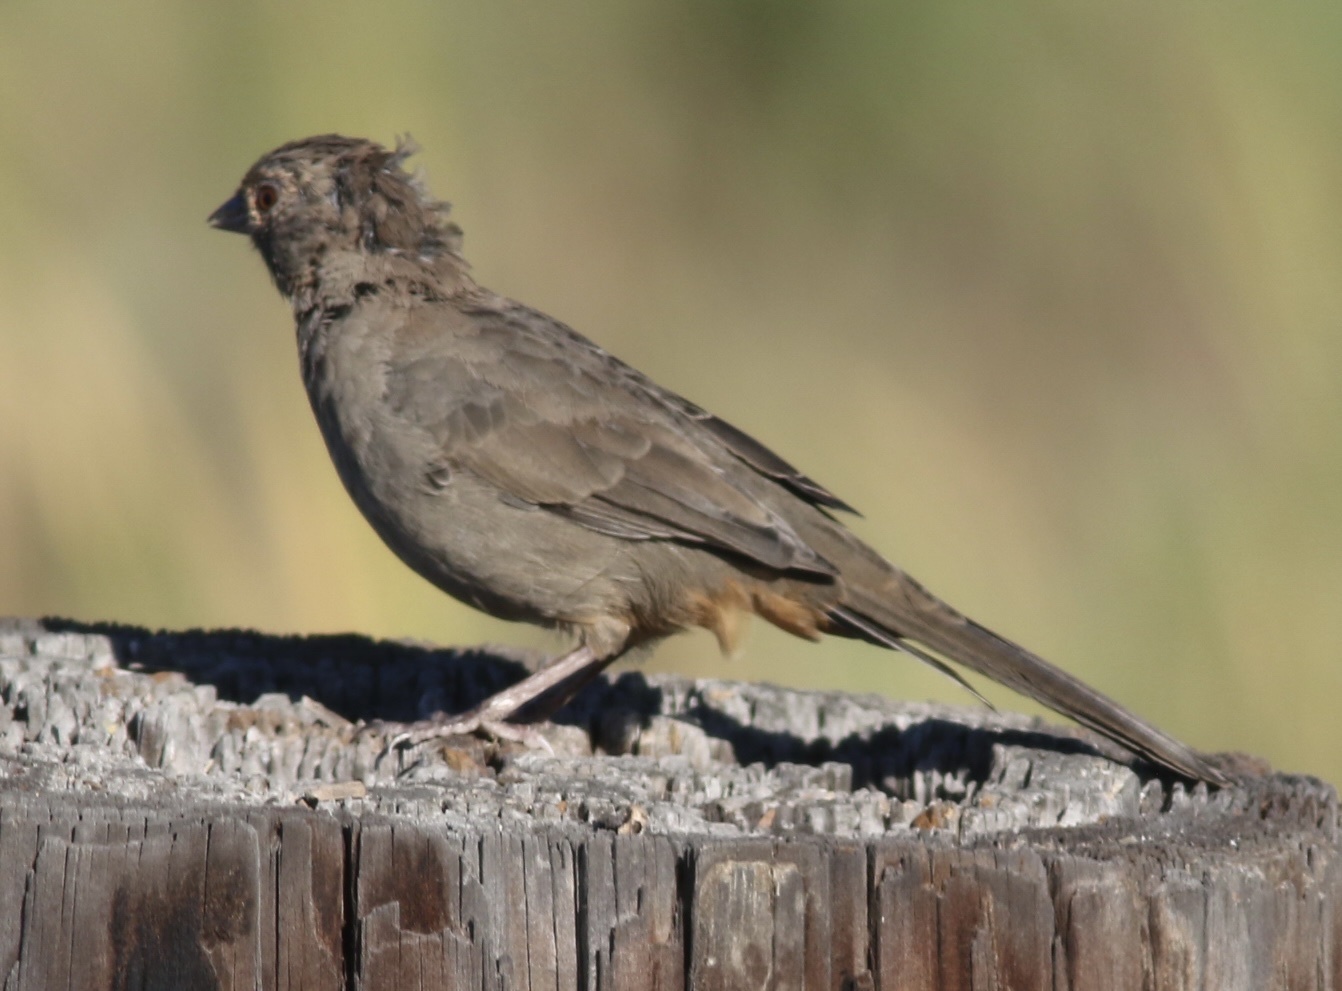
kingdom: Animalia
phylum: Chordata
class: Aves
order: Passeriformes
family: Passerellidae
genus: Melozone
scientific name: Melozone crissalis
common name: California towhee
